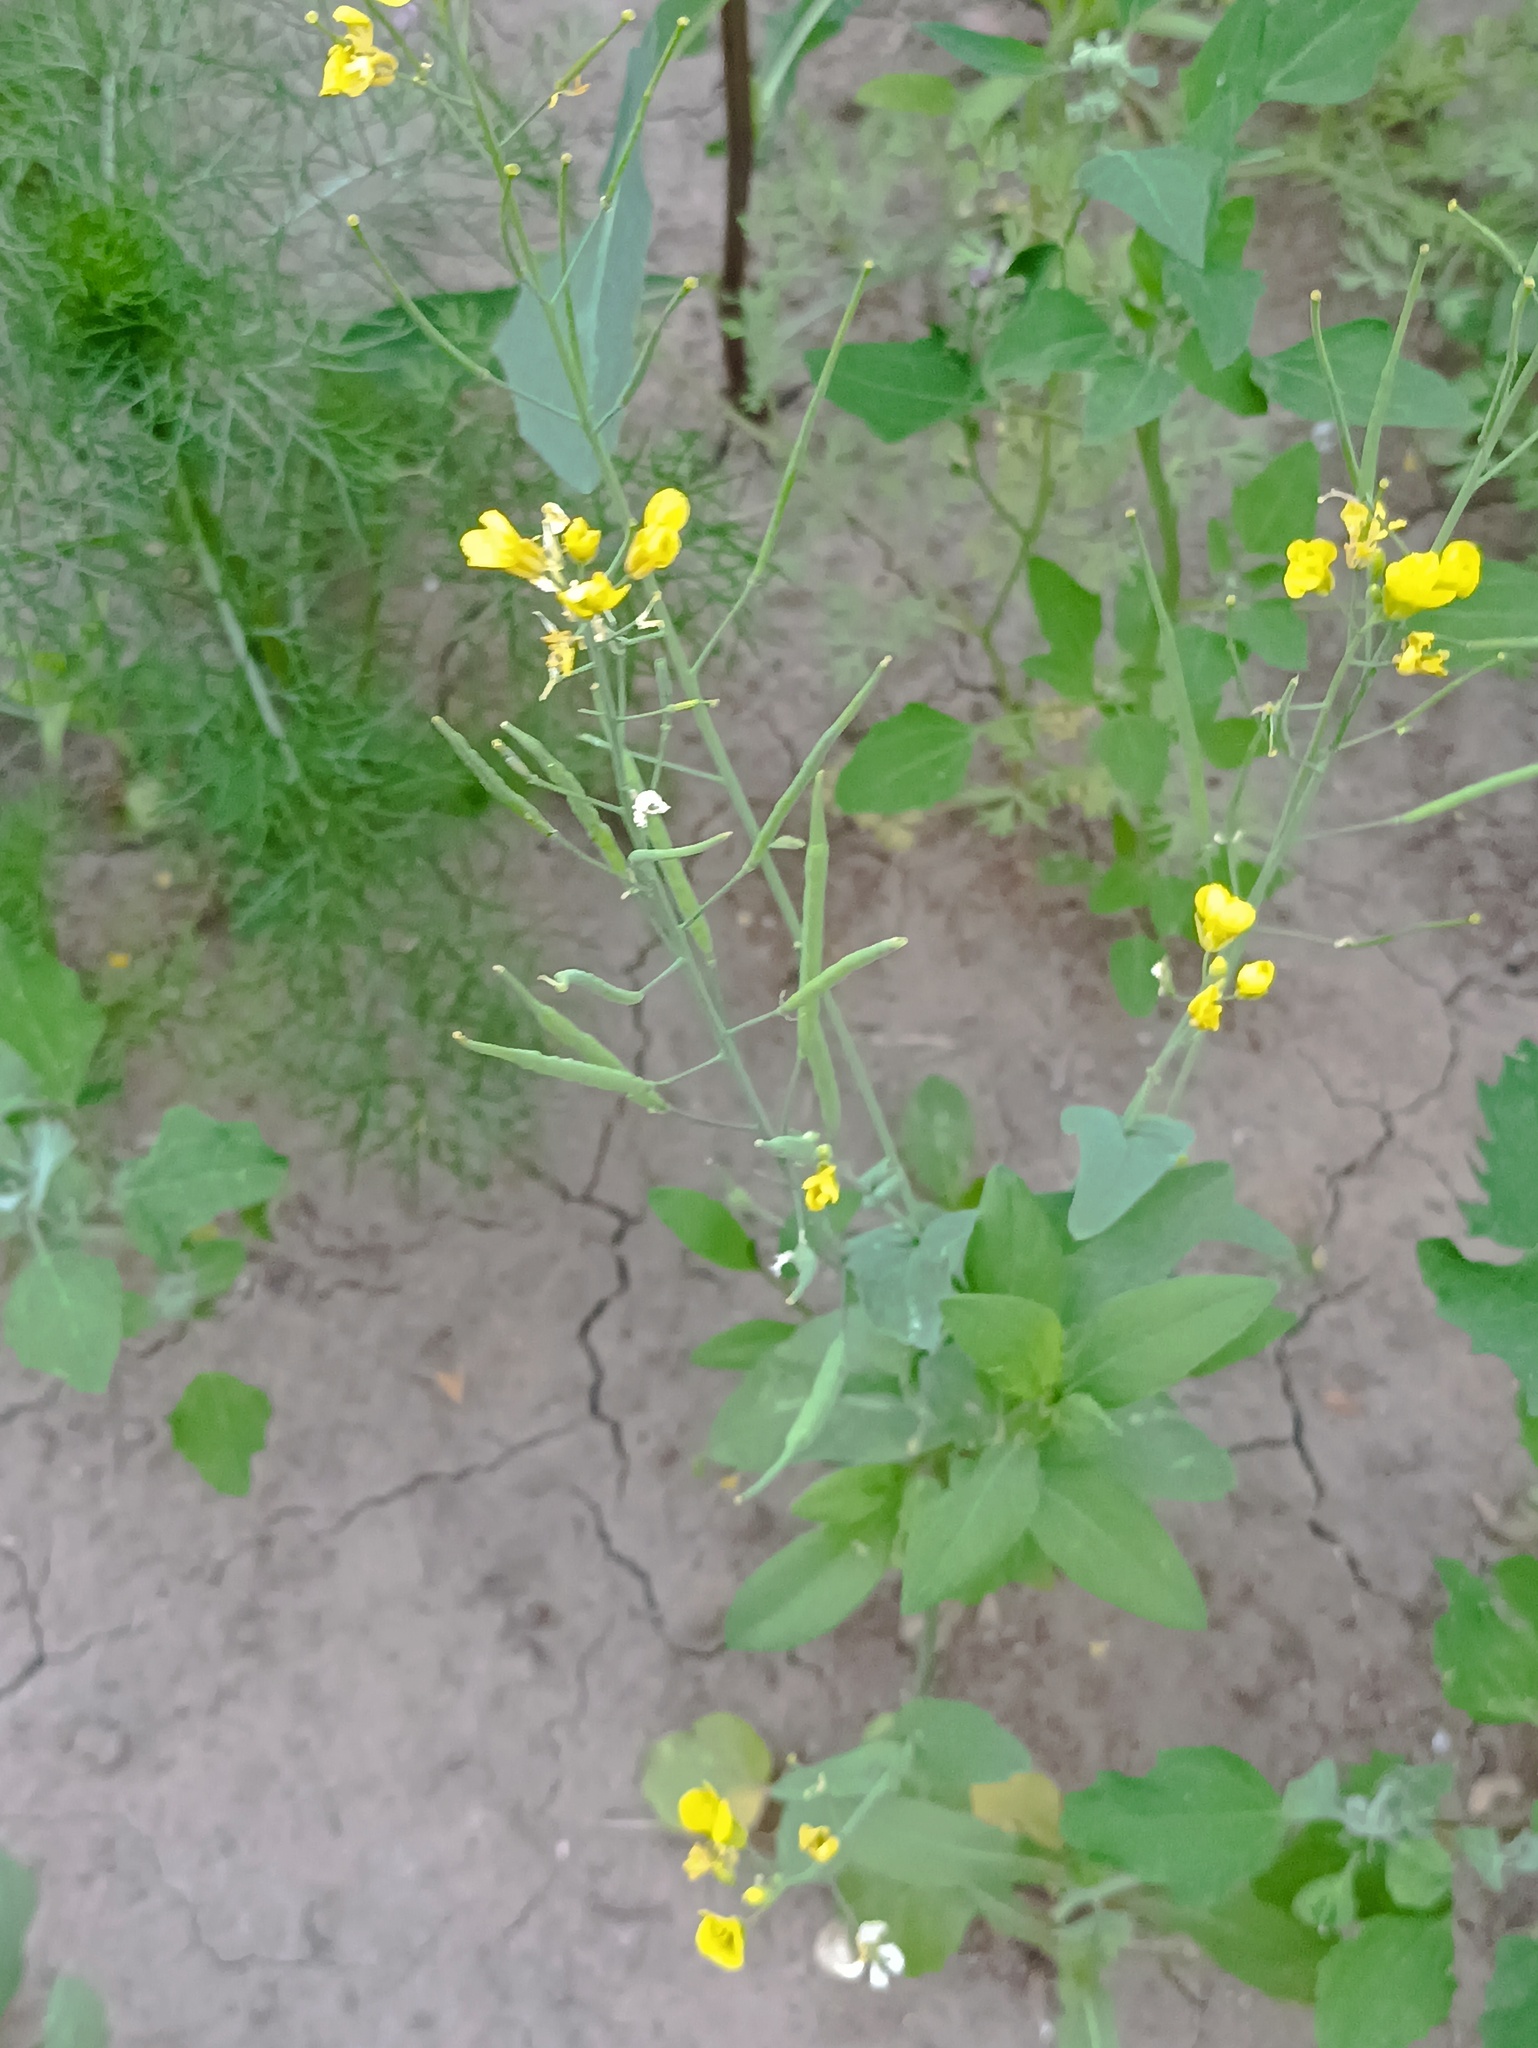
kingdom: Plantae
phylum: Tracheophyta
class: Magnoliopsida
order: Brassicales
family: Brassicaceae
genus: Brassica
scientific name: Brassica rapa
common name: Field mustard
